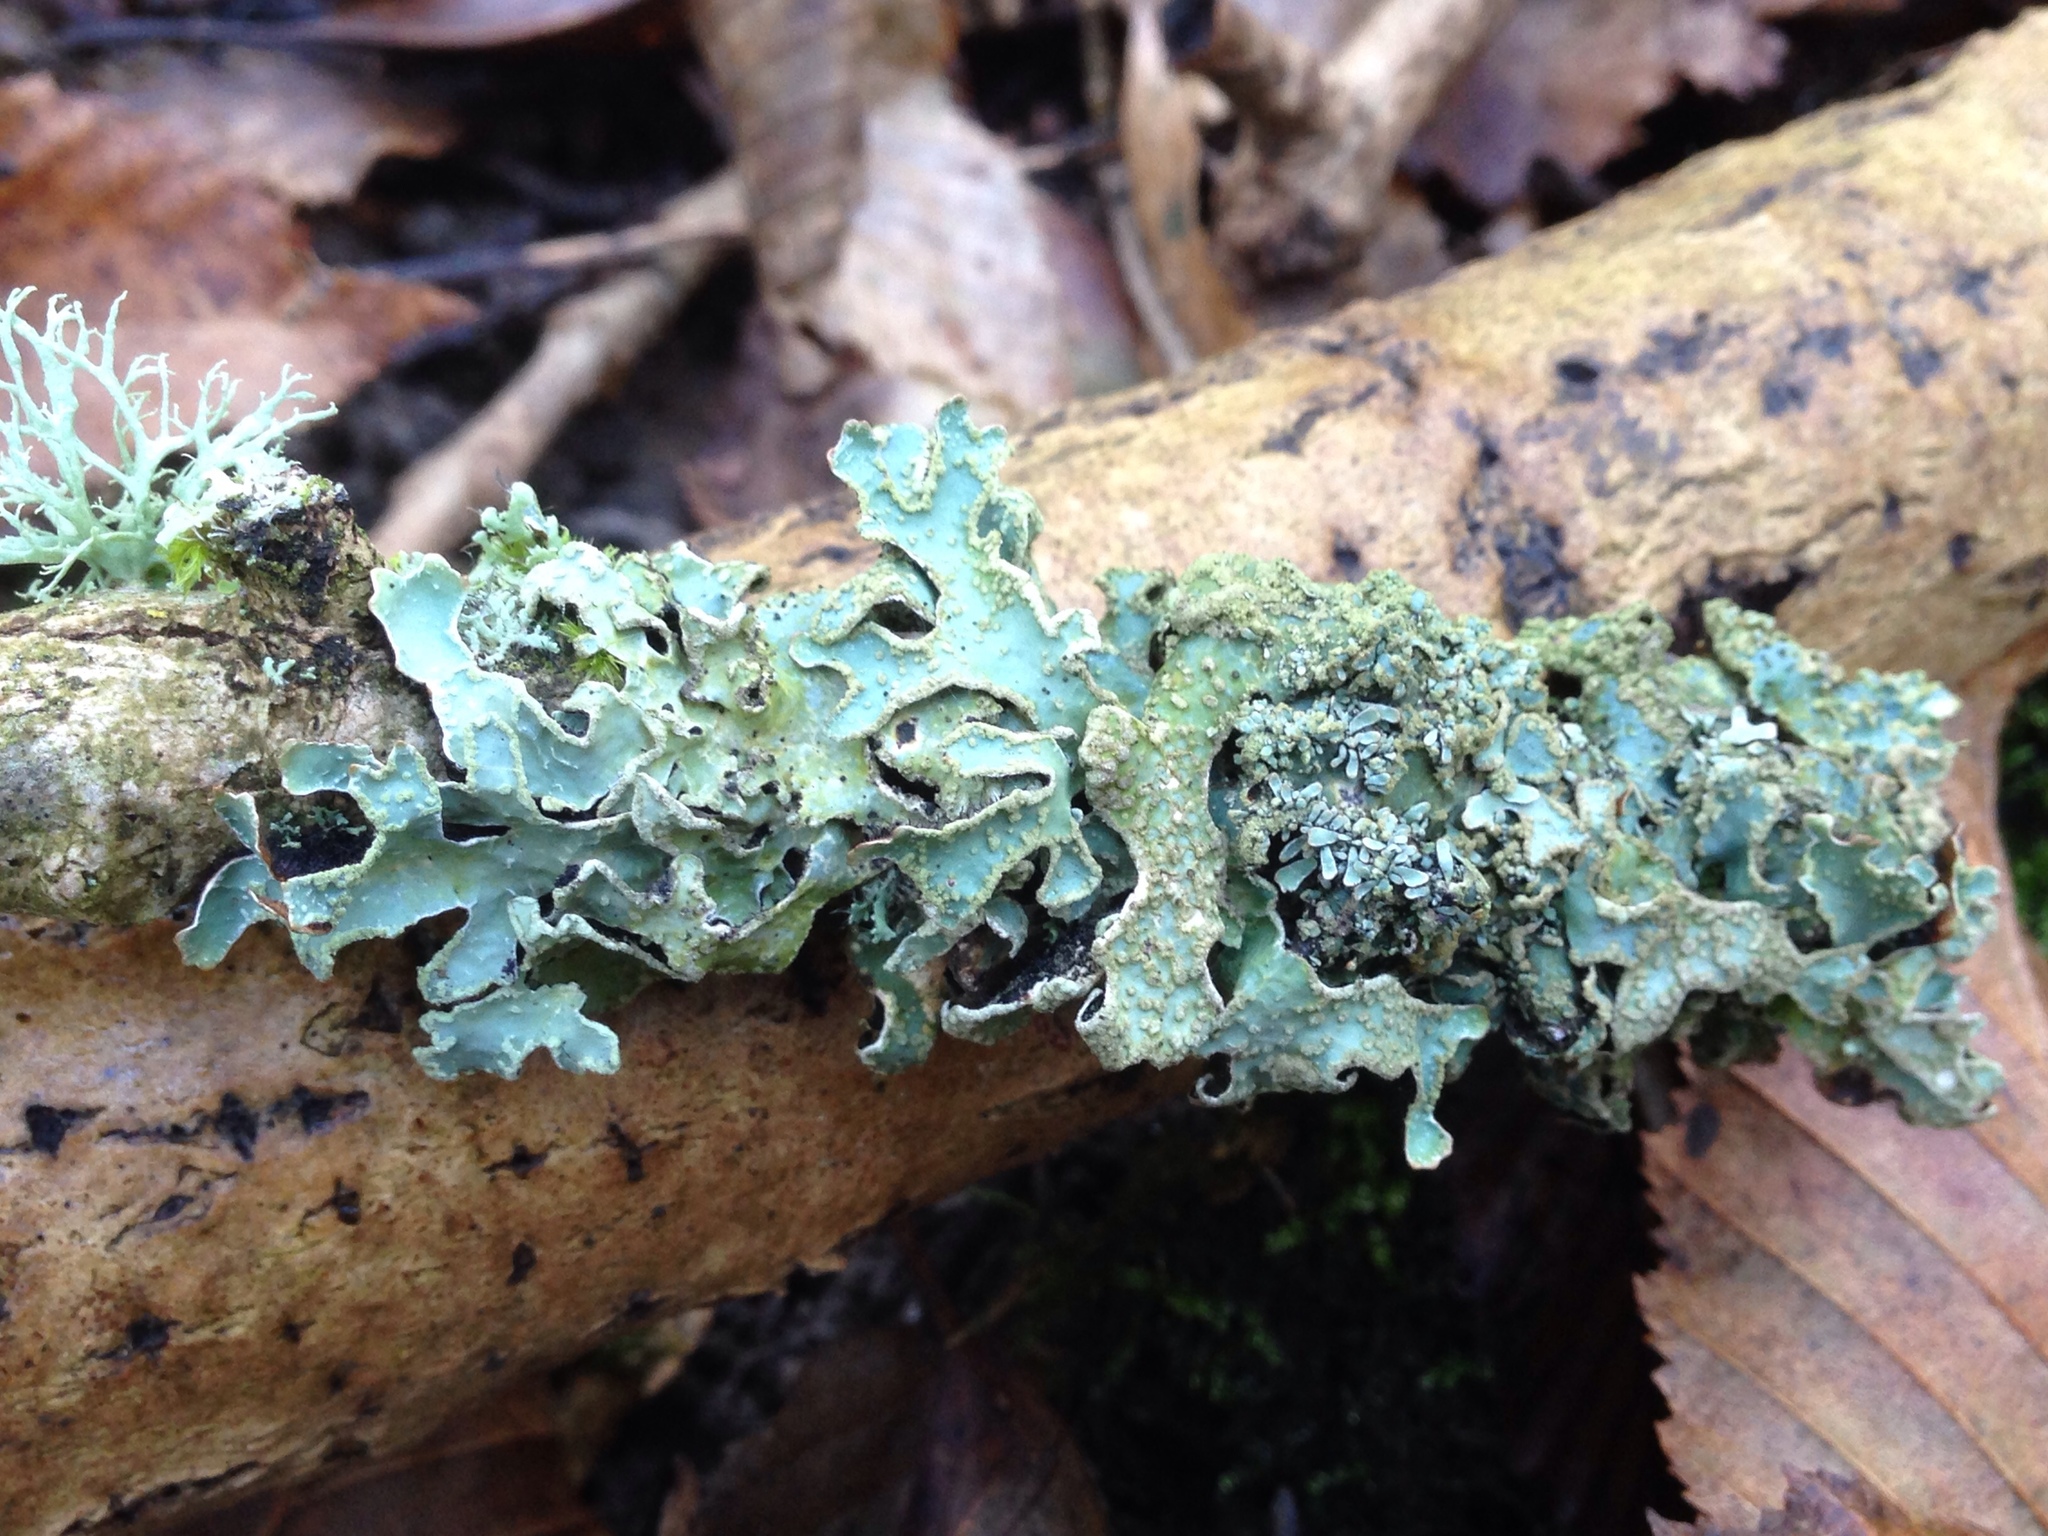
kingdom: Fungi
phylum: Ascomycota
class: Lecanoromycetes
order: Lecanorales
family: Parmeliaceae
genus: Parmelia
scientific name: Parmelia sulcata
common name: Netted shield lichen
